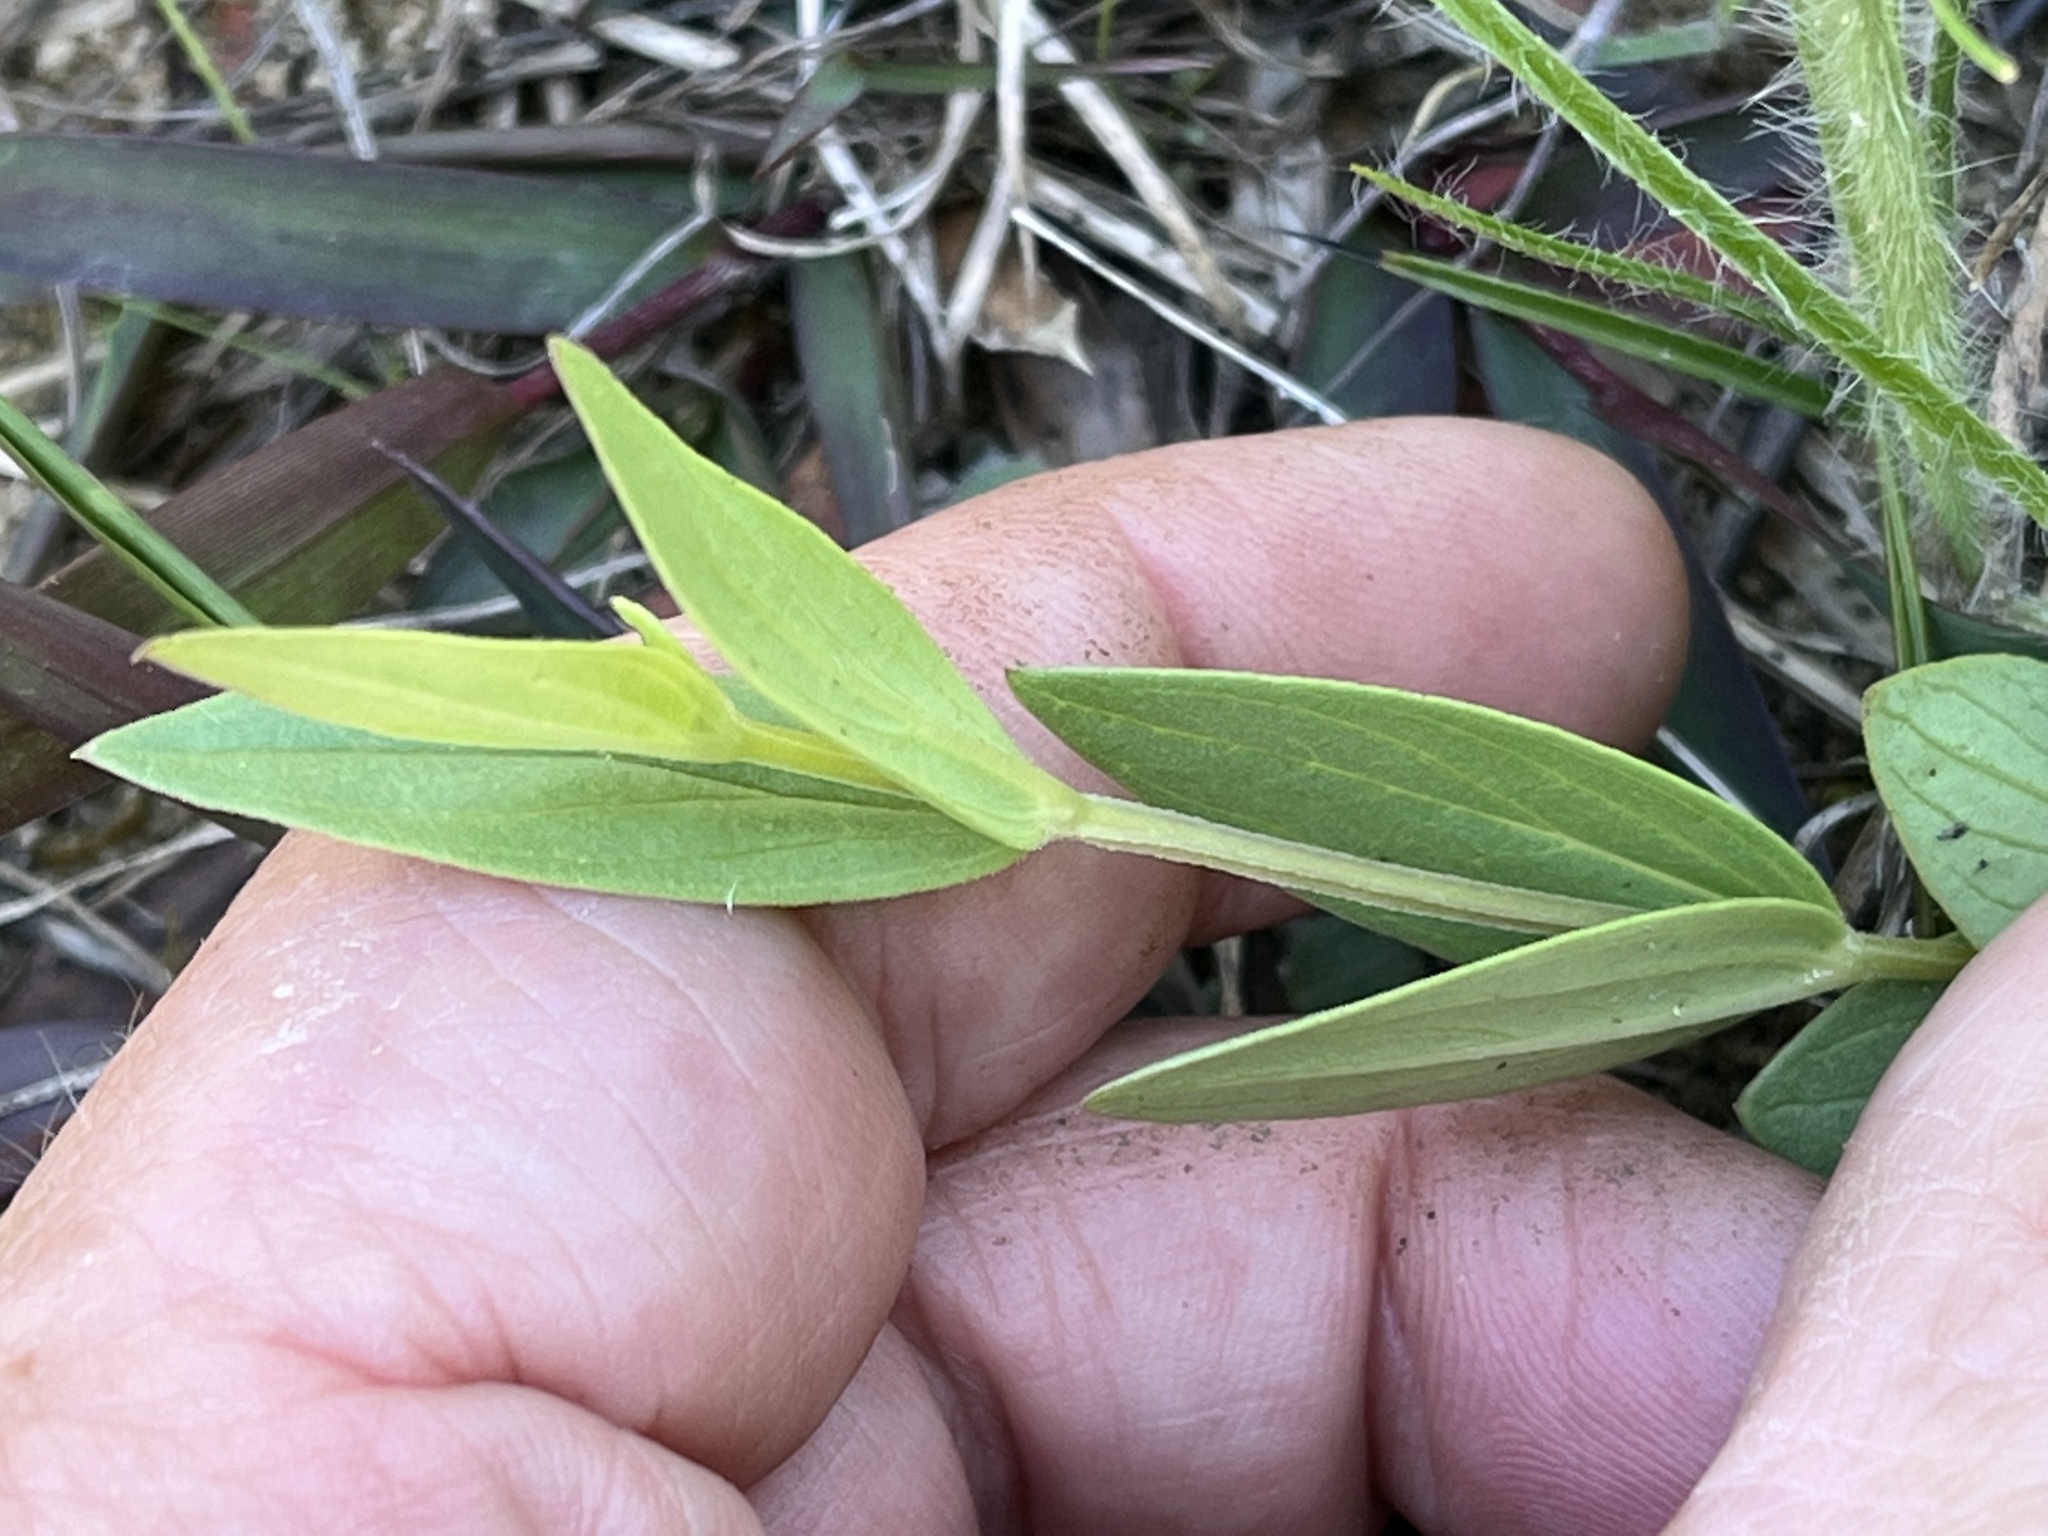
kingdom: Plantae
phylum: Tracheophyta
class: Magnoliopsida
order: Gentianales
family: Loganiaceae
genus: Spigelia
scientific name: Spigelia alabamensis
